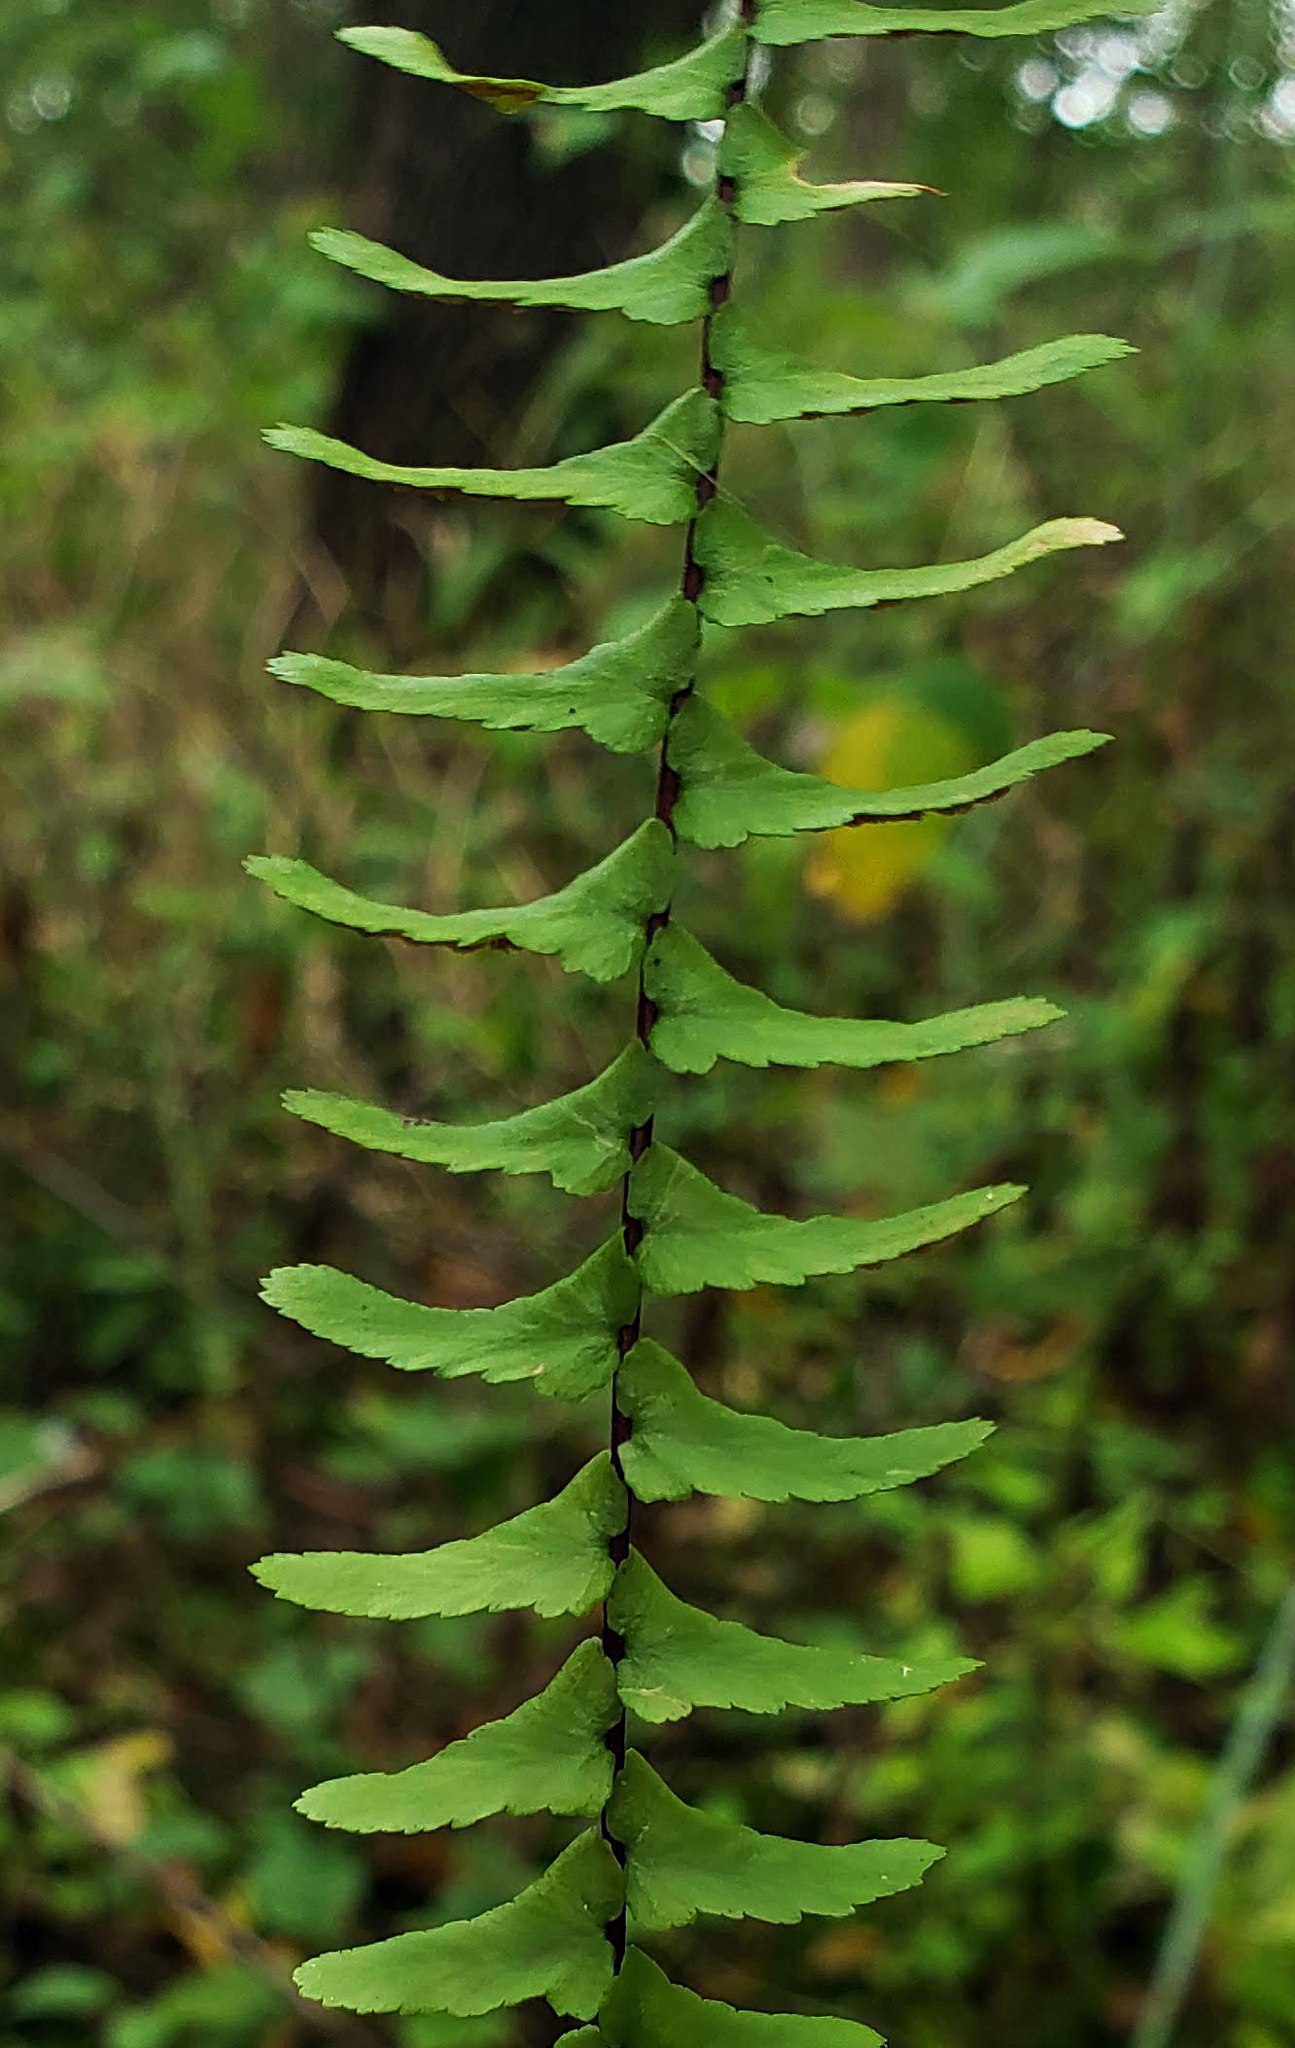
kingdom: Plantae
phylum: Tracheophyta
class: Polypodiopsida
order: Polypodiales
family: Aspleniaceae
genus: Asplenium
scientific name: Asplenium platyneuron
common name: Ebony spleenwort
